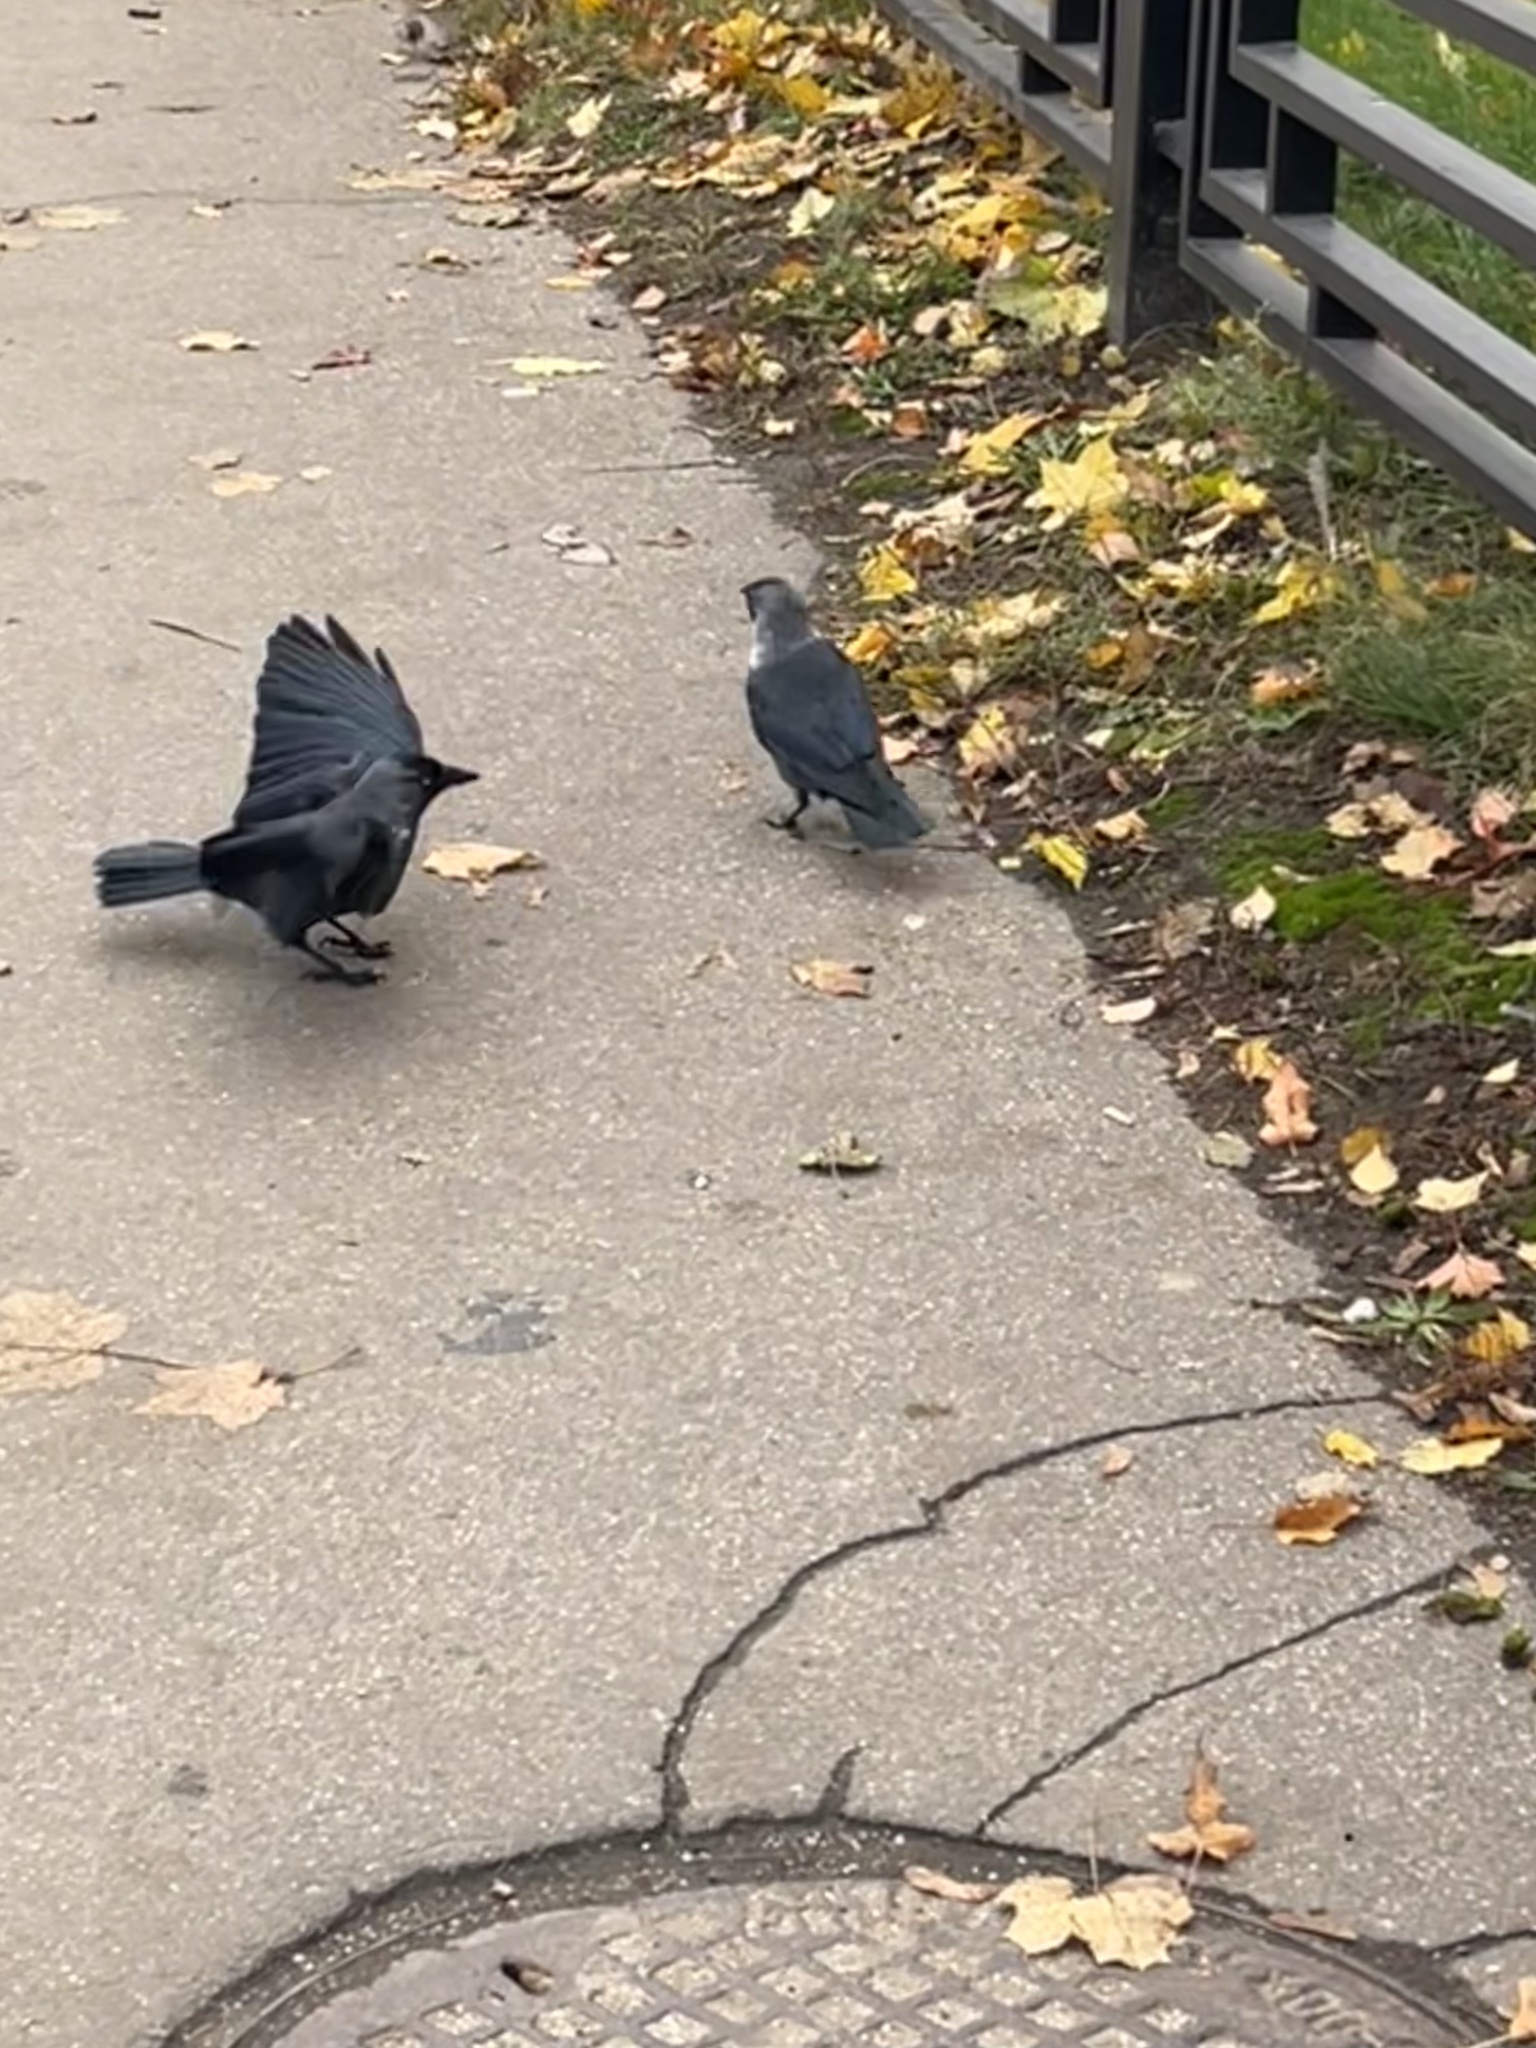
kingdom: Animalia
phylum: Chordata
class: Aves
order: Passeriformes
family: Corvidae
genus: Coloeus
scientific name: Coloeus monedula
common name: Western jackdaw
